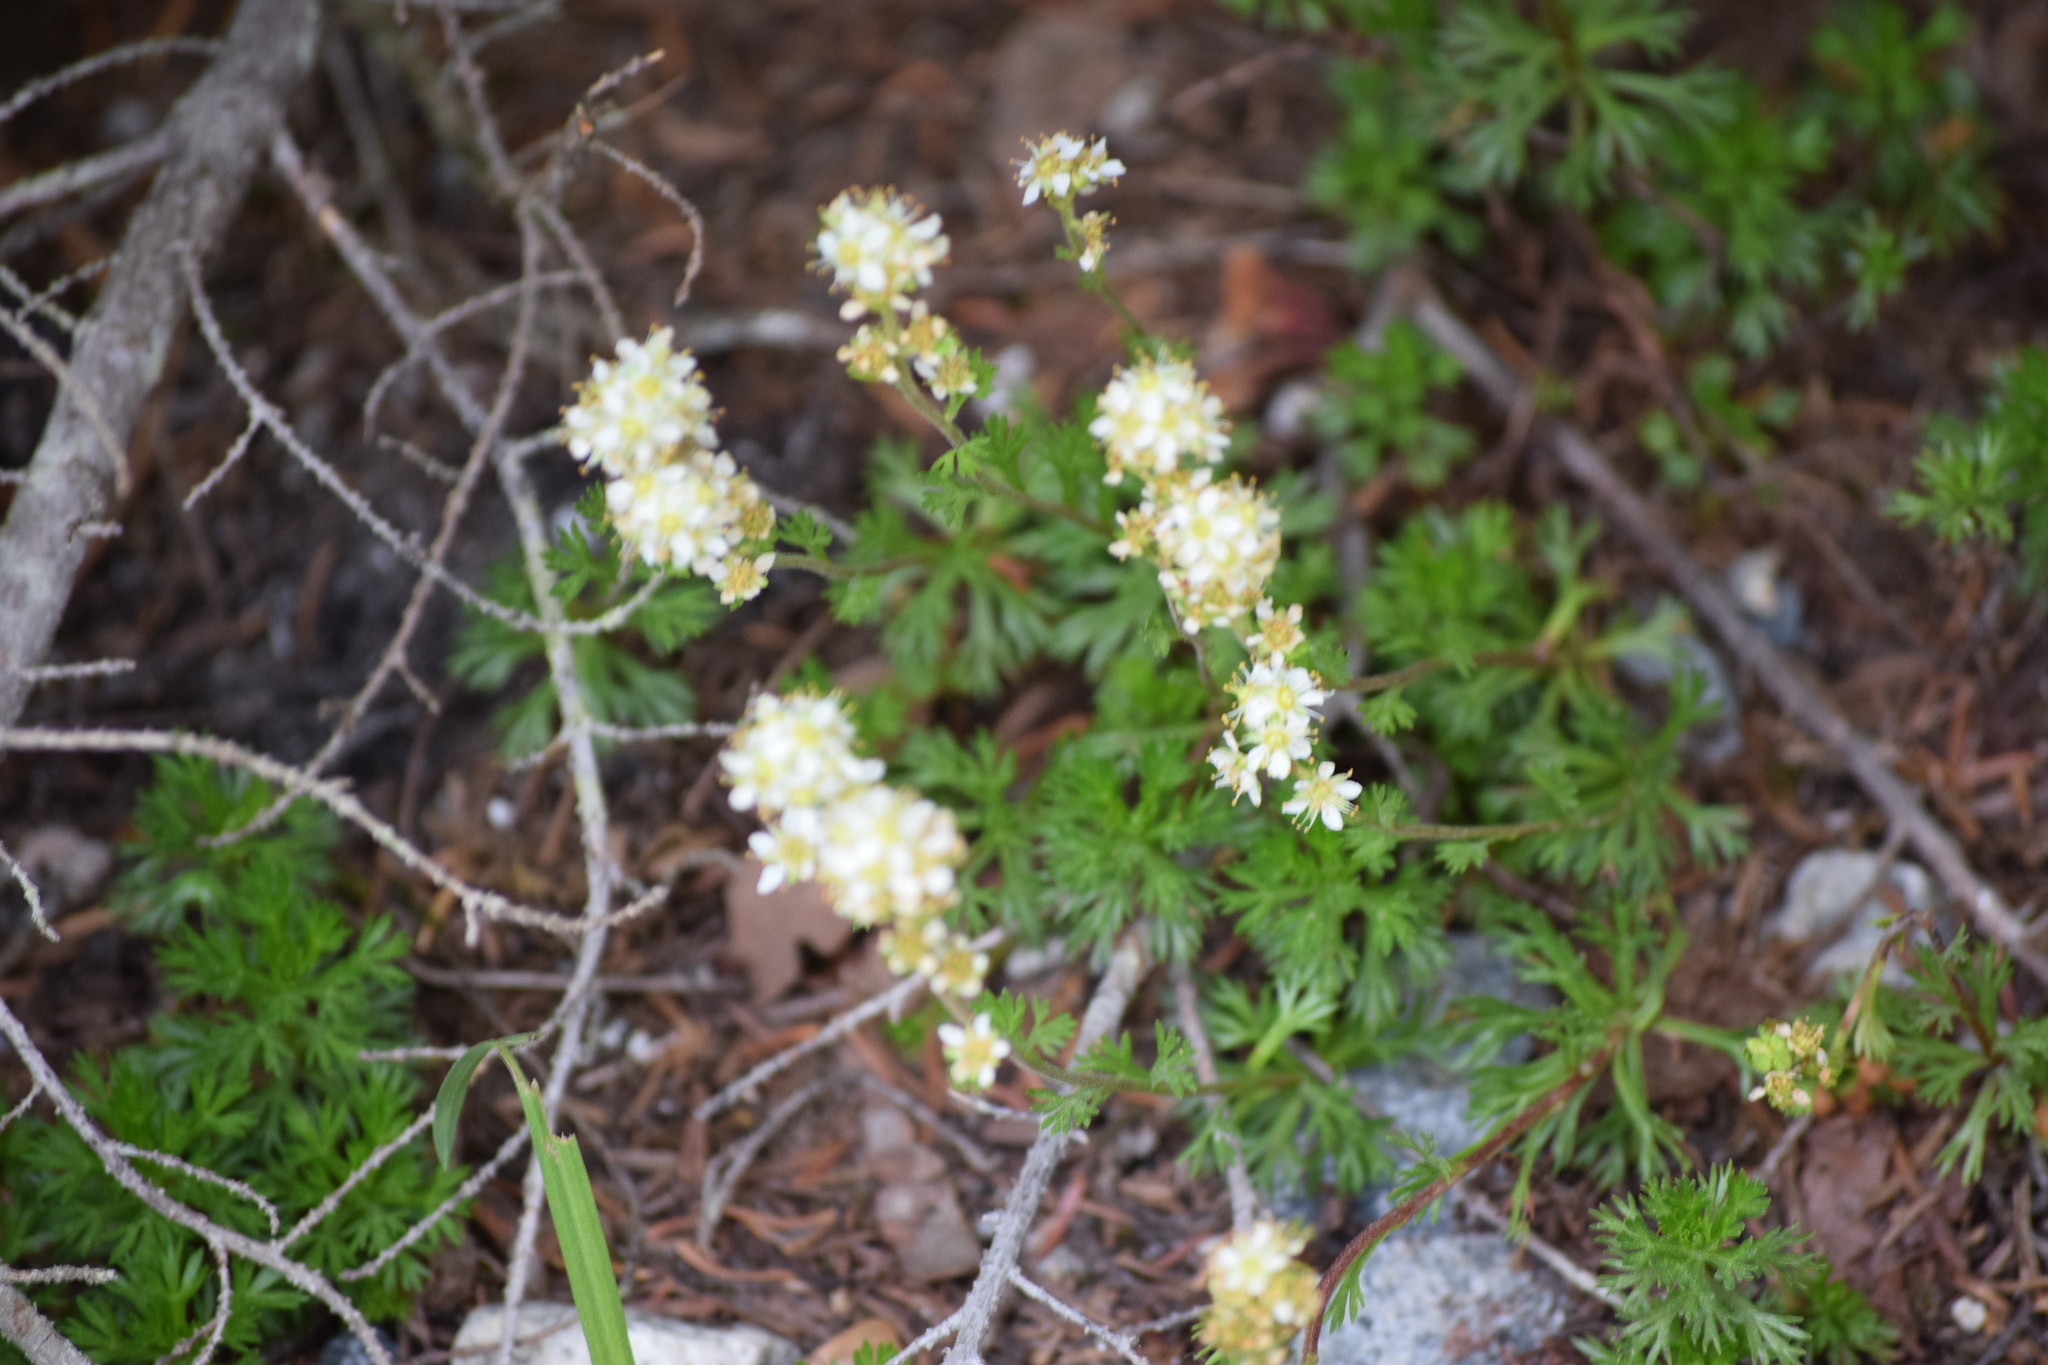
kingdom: Plantae
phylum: Tracheophyta
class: Magnoliopsida
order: Rosales
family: Rosaceae
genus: Luetkea
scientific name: Luetkea pectinata
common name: Partridgefoot
